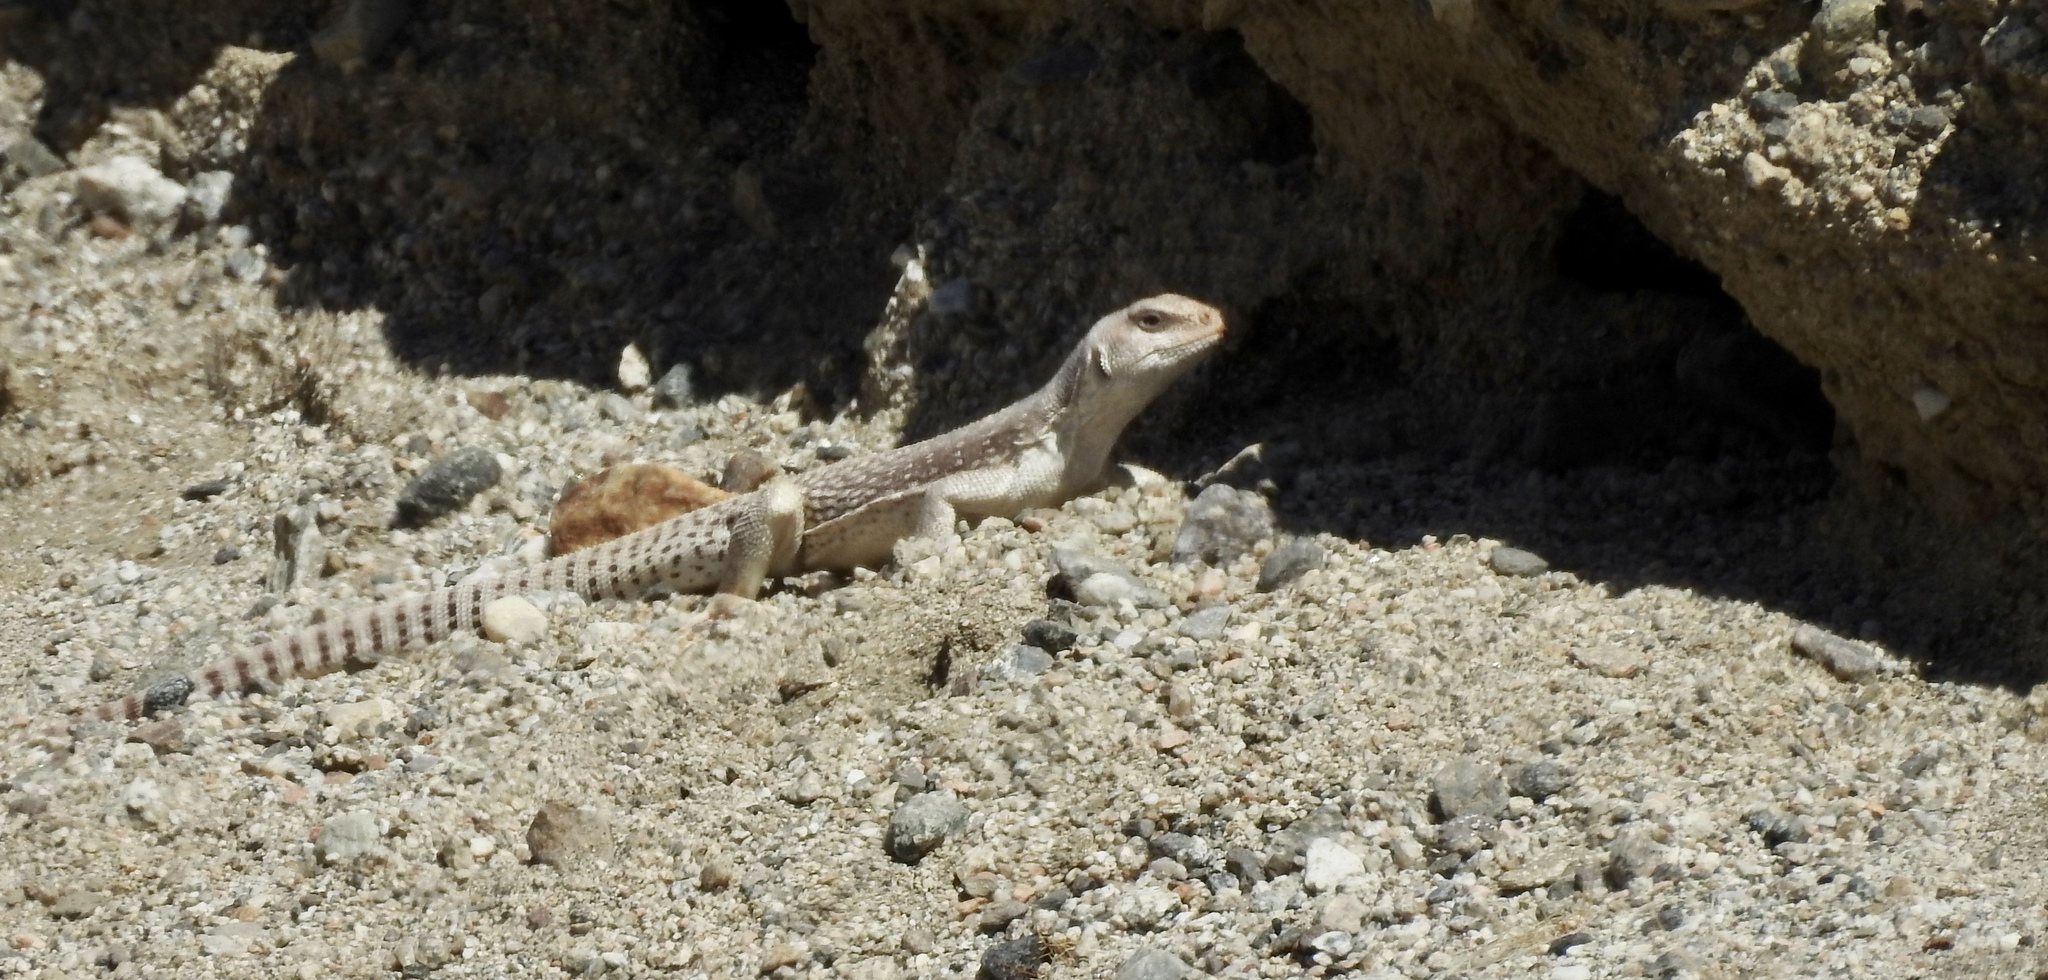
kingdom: Animalia
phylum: Chordata
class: Squamata
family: Iguanidae
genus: Dipsosaurus
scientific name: Dipsosaurus dorsalis
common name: Desert iguana
